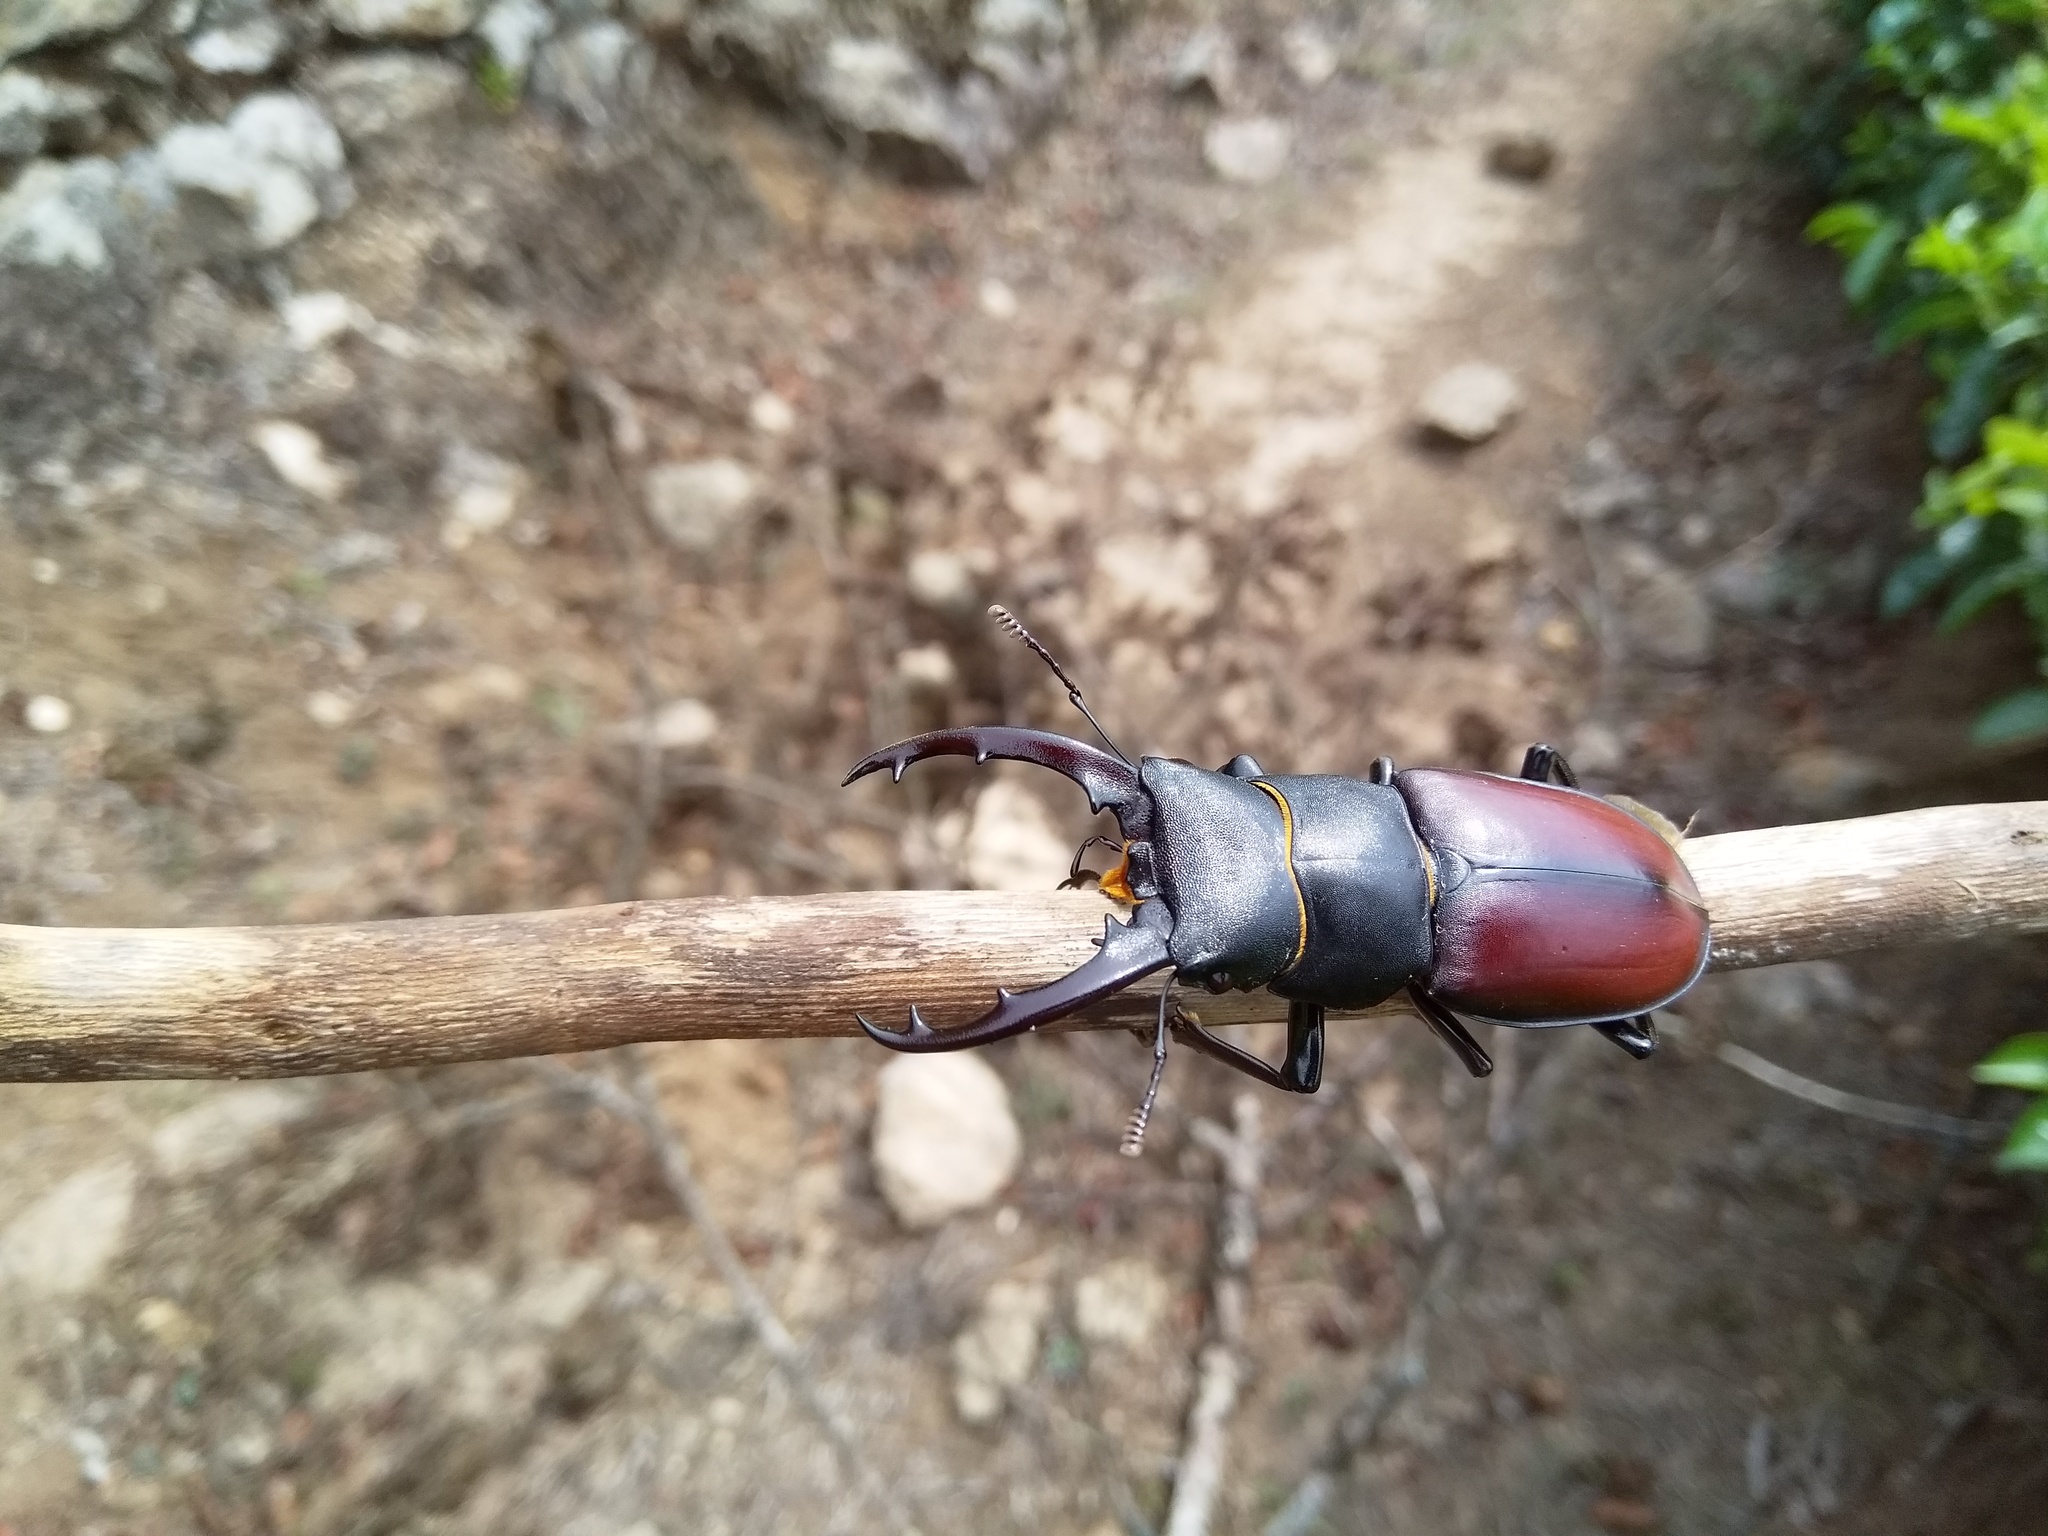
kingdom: Animalia
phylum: Arthropoda
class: Insecta
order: Coleoptera
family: Lucanidae
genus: Hexarthrius
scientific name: Hexarthrius davisoni
